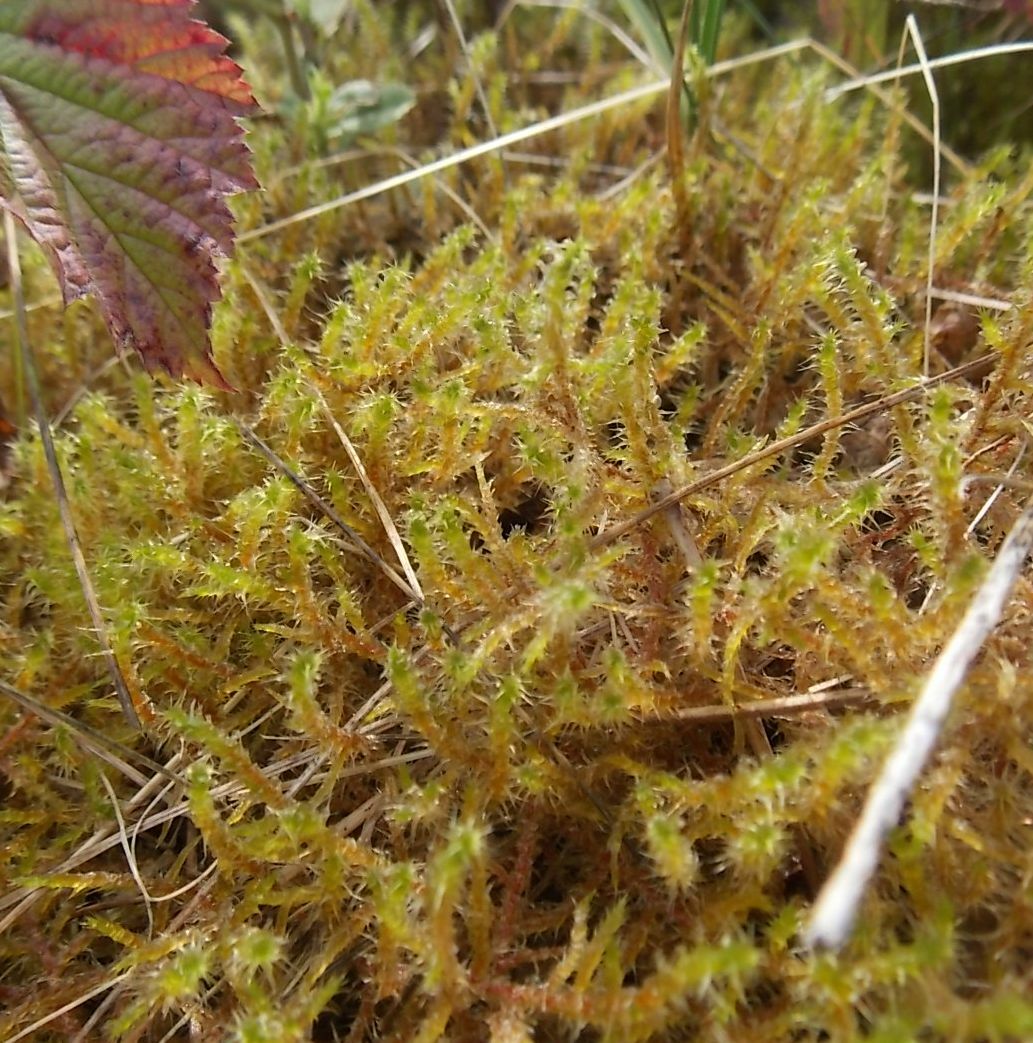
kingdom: Plantae
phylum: Bryophyta
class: Bryopsida
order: Hypnales
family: Hylocomiaceae
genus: Rhytidiadelphus
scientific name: Rhytidiadelphus squarrosus
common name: Springy turf-moss
